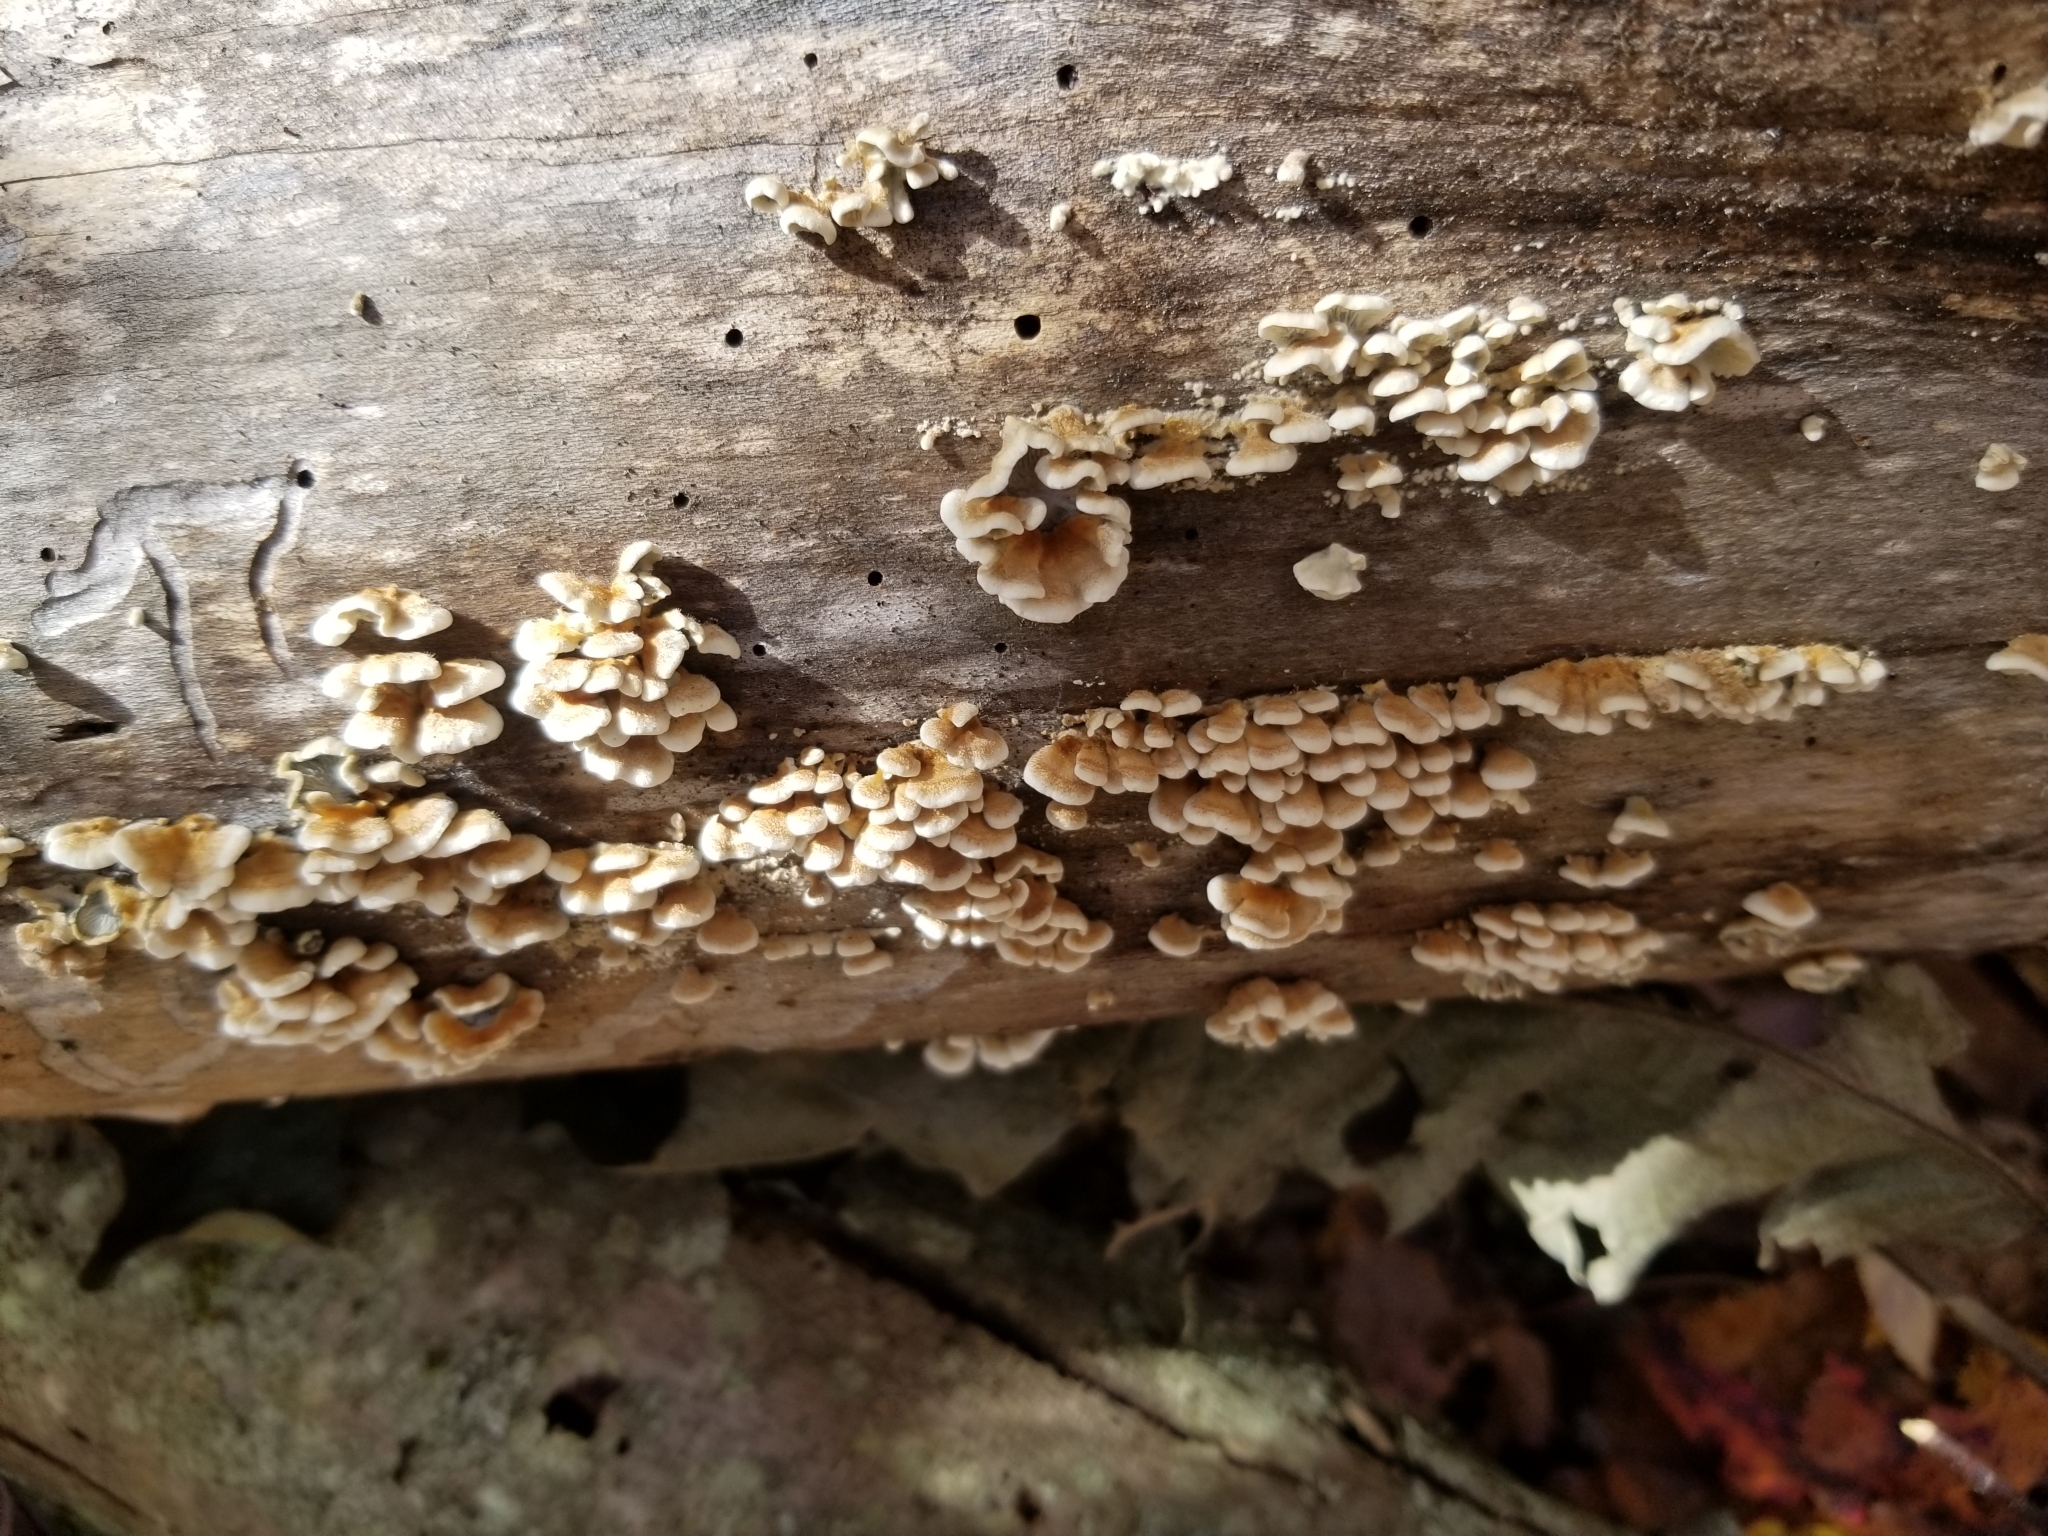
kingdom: Fungi
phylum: Basidiomycota
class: Agaricomycetes
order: Amylocorticiales
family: Amylocorticiaceae
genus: Plicaturopsis
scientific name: Plicaturopsis crispa
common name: Crimped gill
